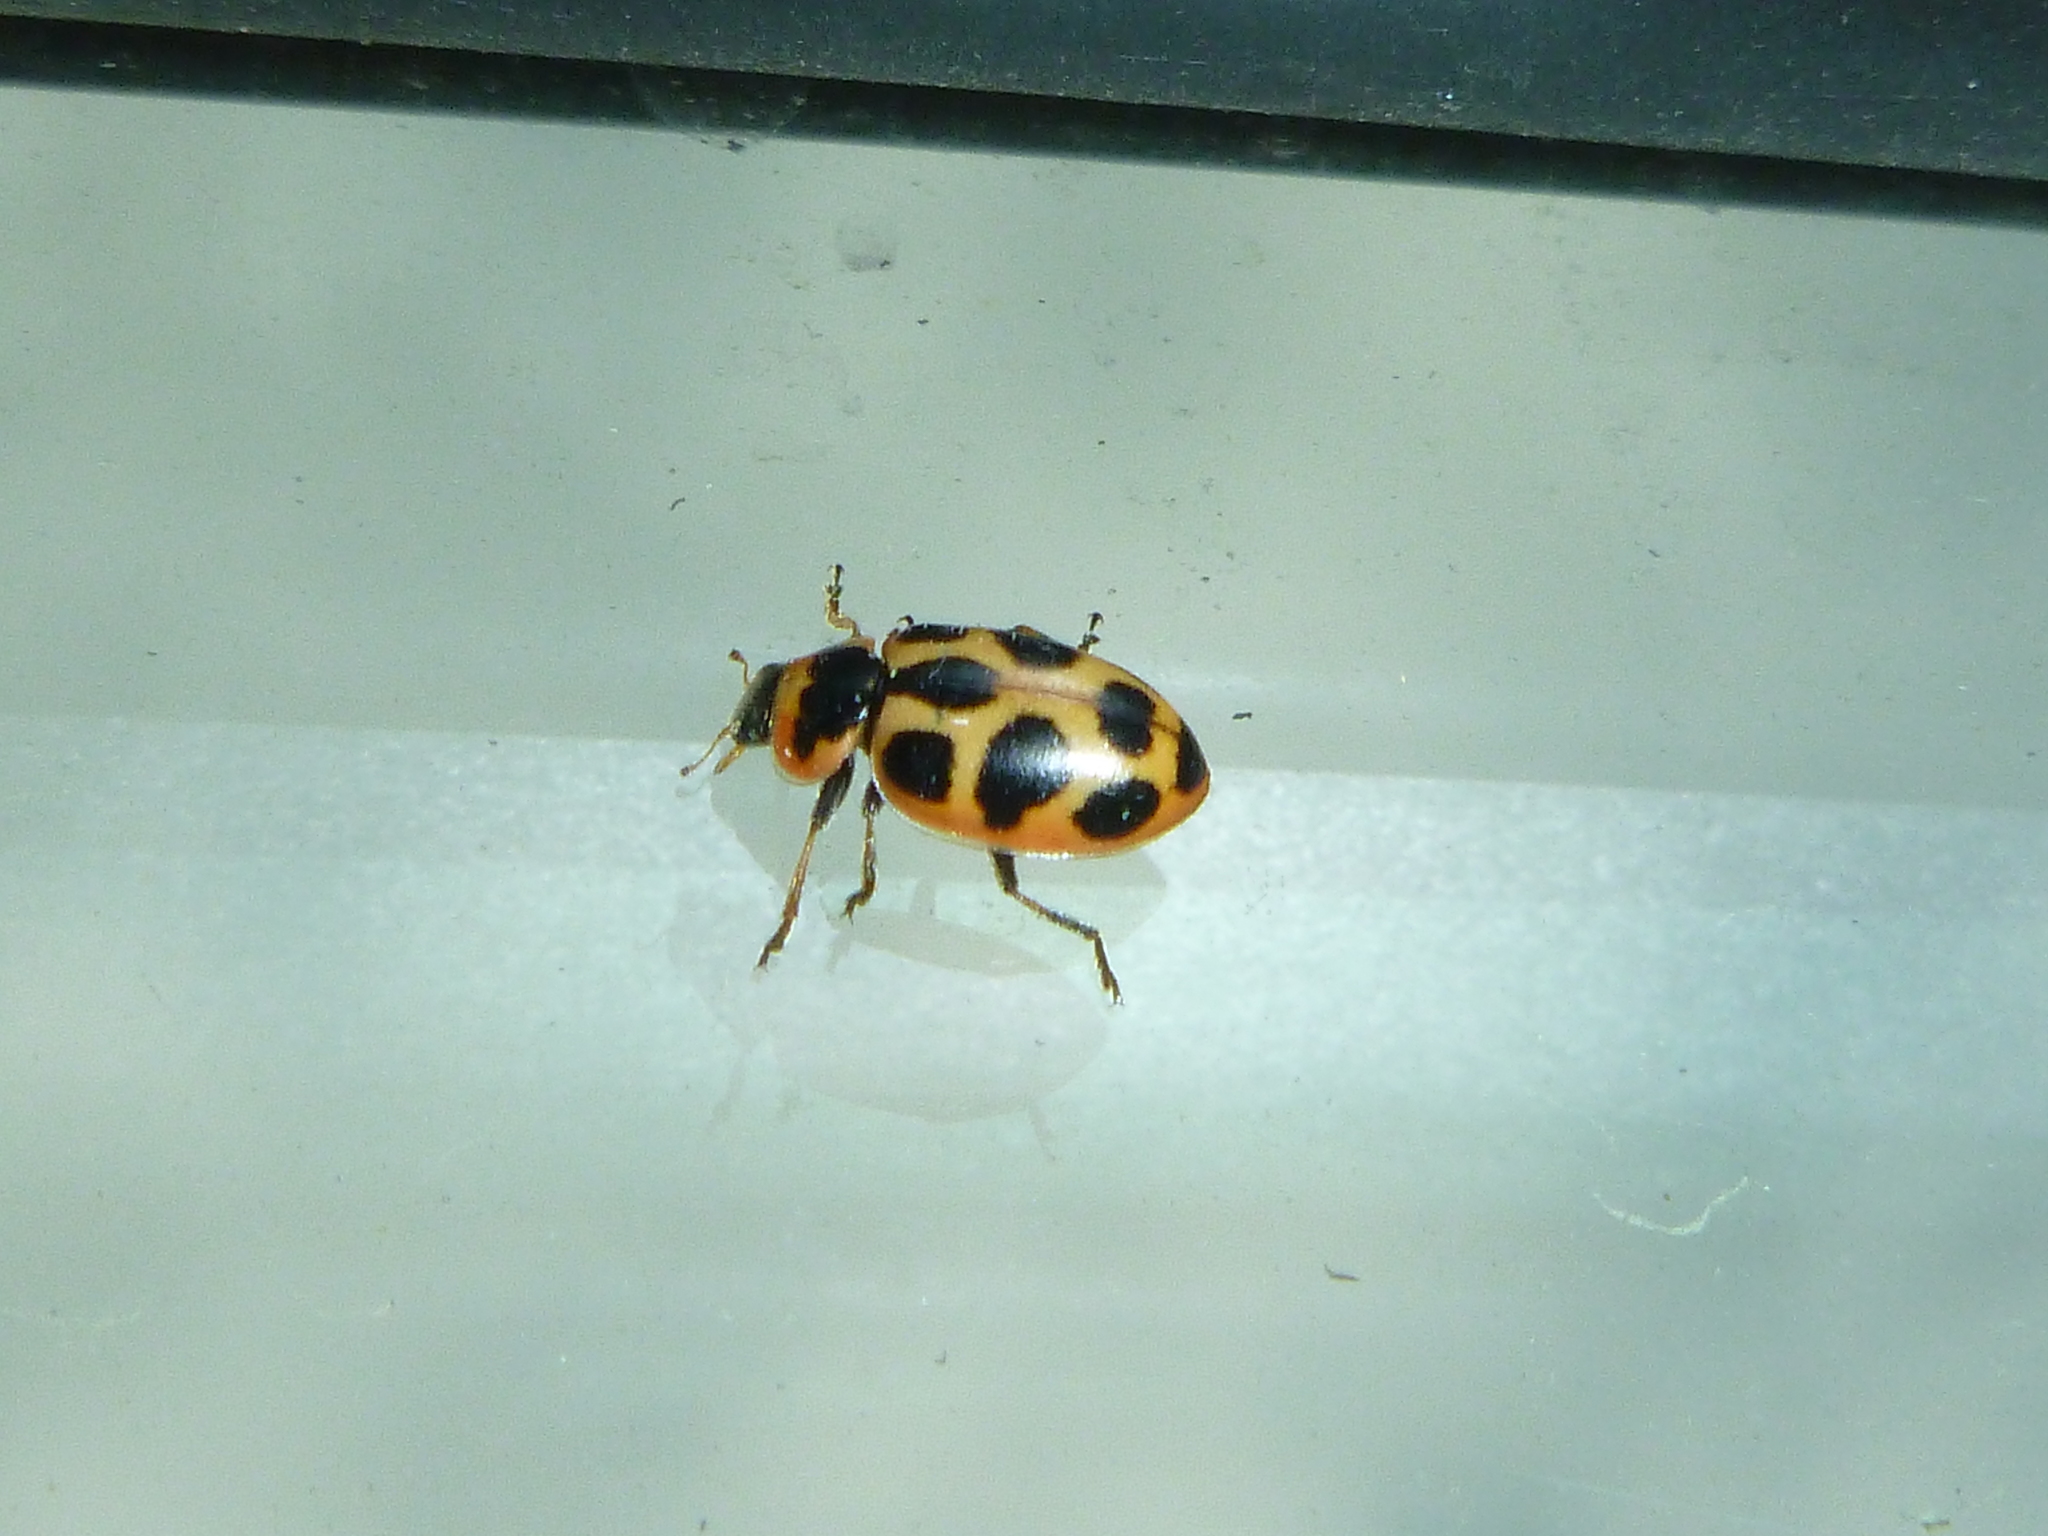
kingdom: Animalia
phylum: Arthropoda
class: Insecta
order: Coleoptera
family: Coccinellidae
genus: Naemia
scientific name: Naemia seriata
